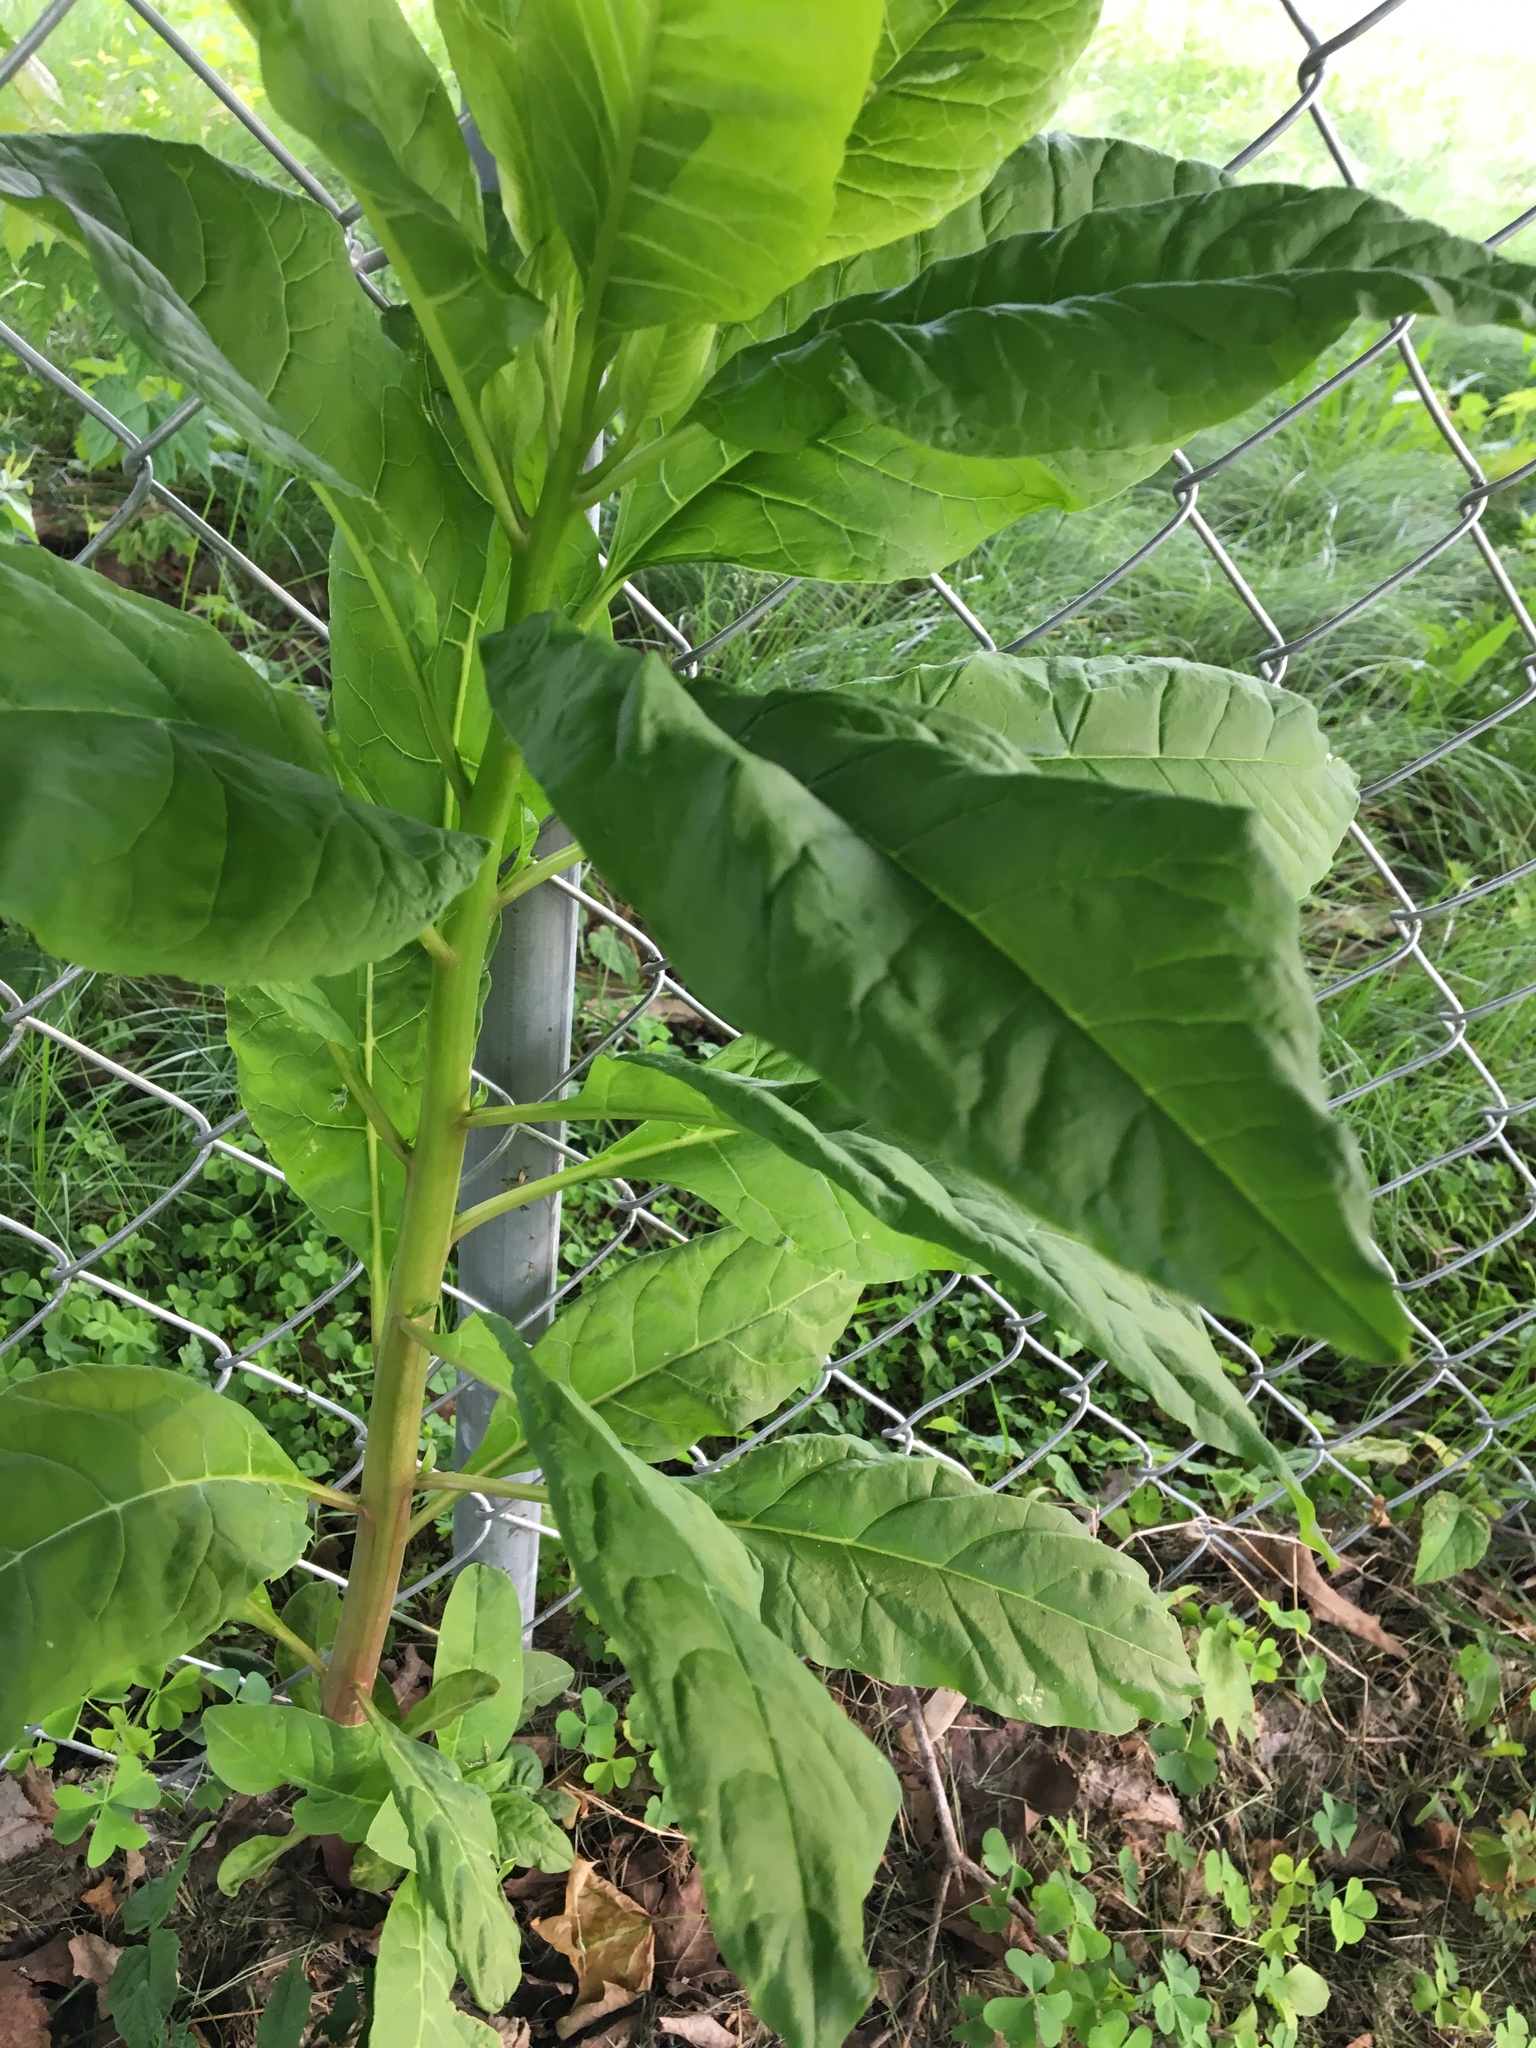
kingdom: Plantae
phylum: Tracheophyta
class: Magnoliopsida
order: Caryophyllales
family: Phytolaccaceae
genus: Phytolacca
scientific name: Phytolacca americana
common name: American pokeweed
